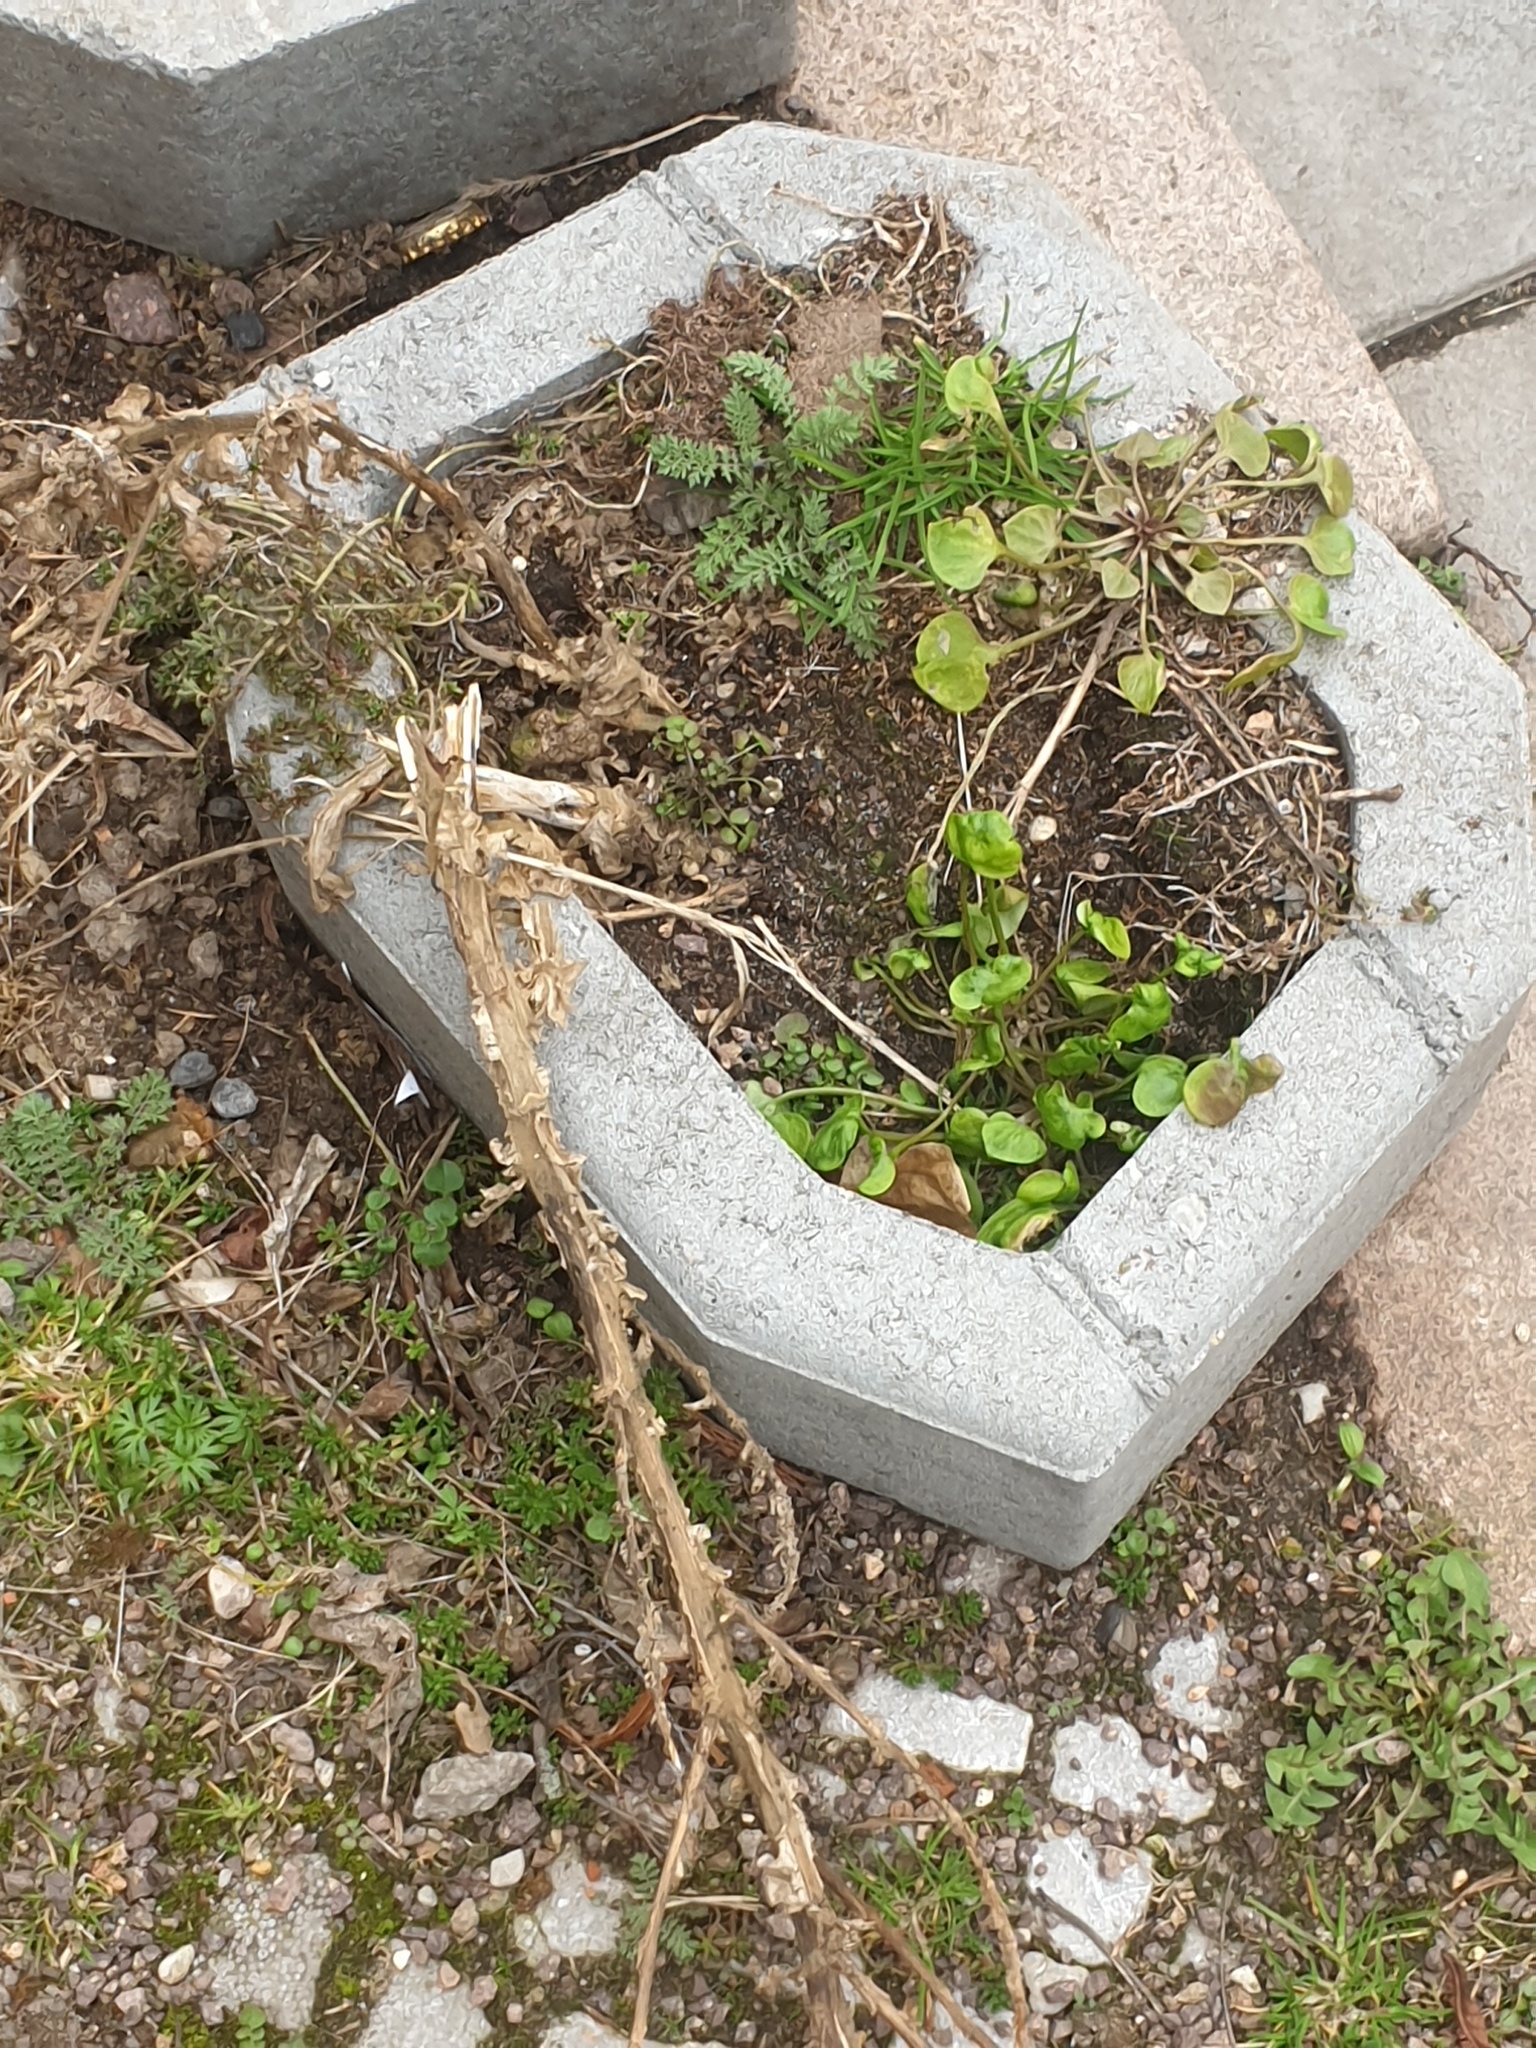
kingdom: Plantae
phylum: Tracheophyta
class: Magnoliopsida
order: Caryophyllales
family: Montiaceae
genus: Claytonia
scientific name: Claytonia perfoliata
